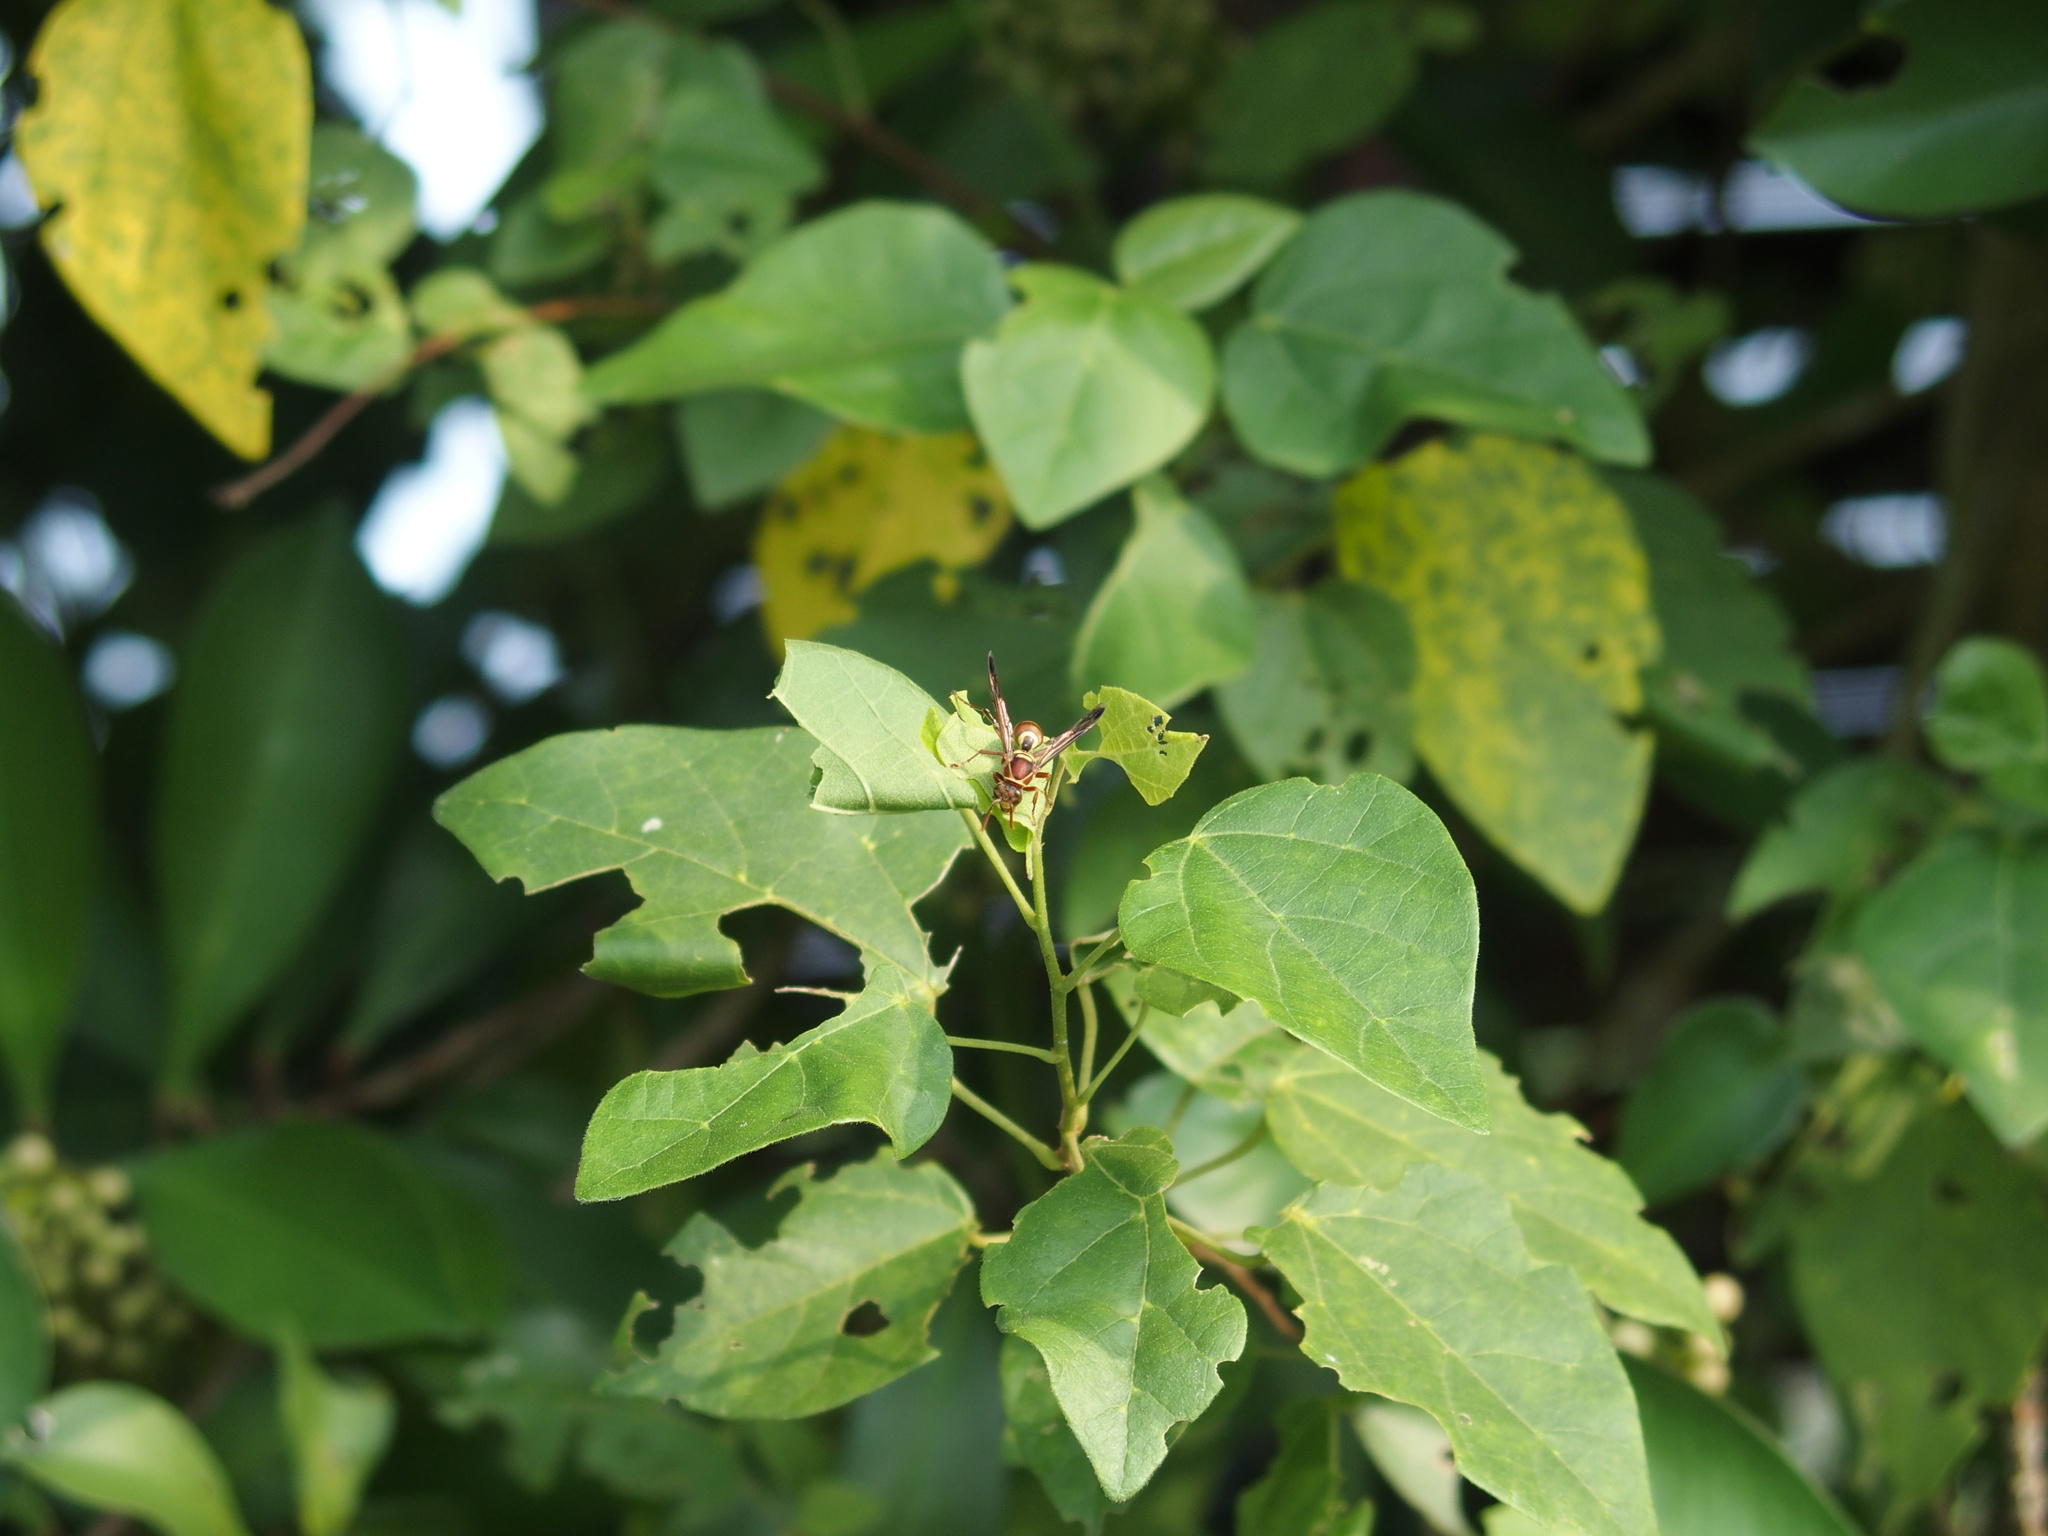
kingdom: Animalia
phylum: Arthropoda
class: Insecta
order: Hymenoptera
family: Eumenidae
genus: Polistes
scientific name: Polistes stigma
